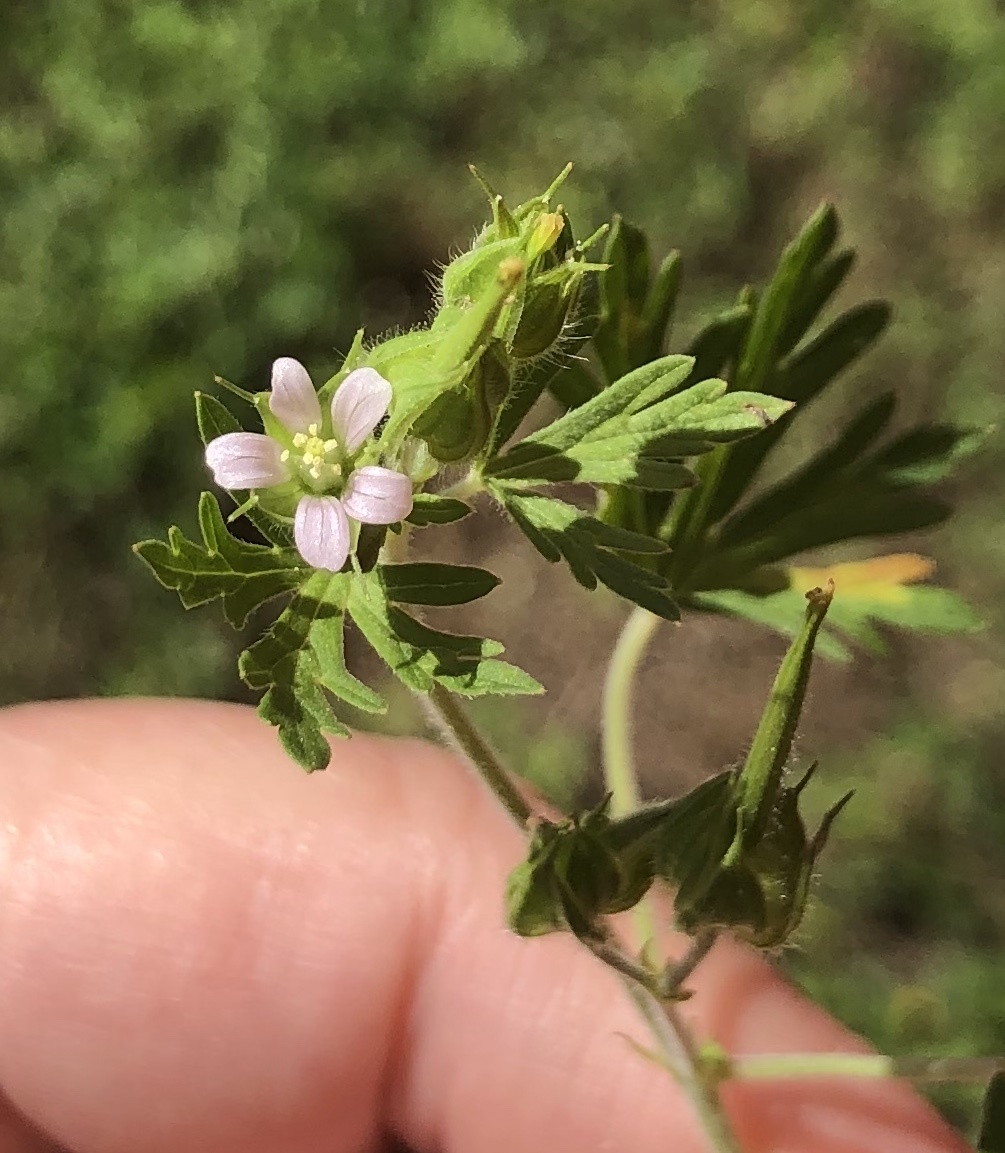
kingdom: Plantae
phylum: Tracheophyta
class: Magnoliopsida
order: Geraniales
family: Geraniaceae
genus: Geranium
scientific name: Geranium carolinianum
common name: Carolina crane's-bill
